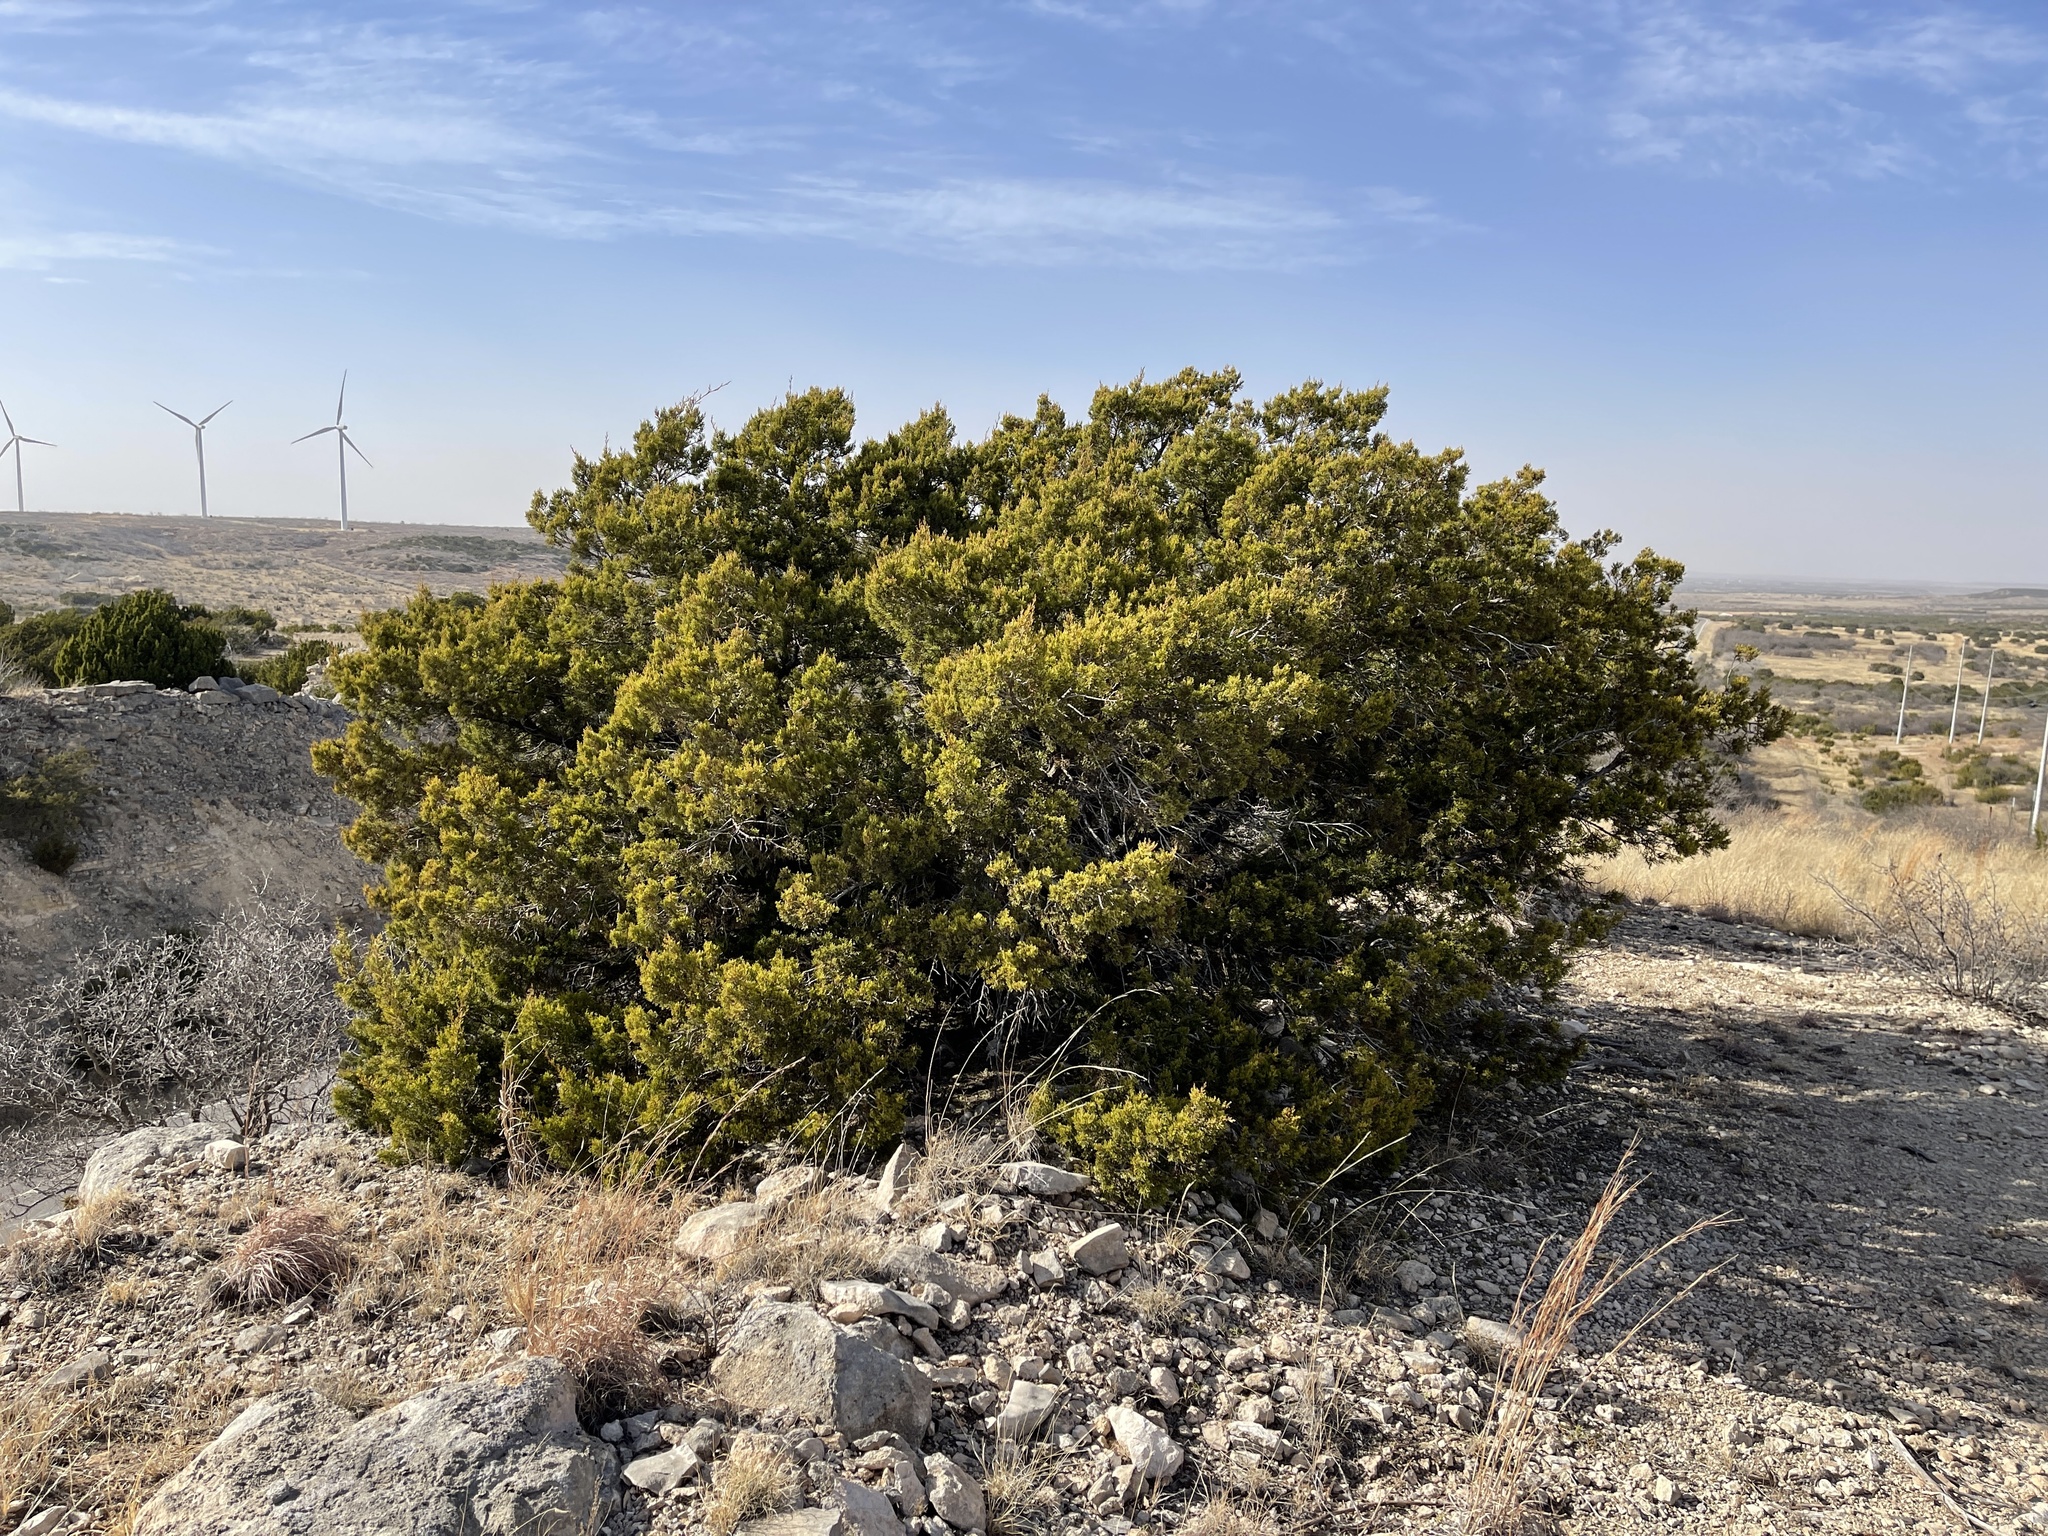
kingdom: Plantae
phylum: Tracheophyta
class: Pinopsida
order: Pinales
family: Cupressaceae
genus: Juniperus
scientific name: Juniperus ashei
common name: Mexican juniper
